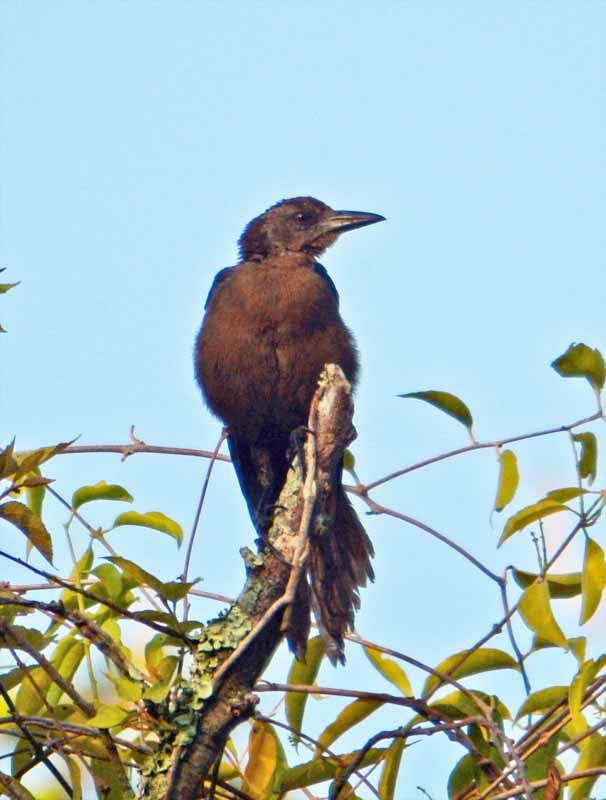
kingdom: Animalia
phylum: Chordata
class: Aves
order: Passeriformes
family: Icteridae
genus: Quiscalus
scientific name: Quiscalus mexicanus
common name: Great-tailed grackle
